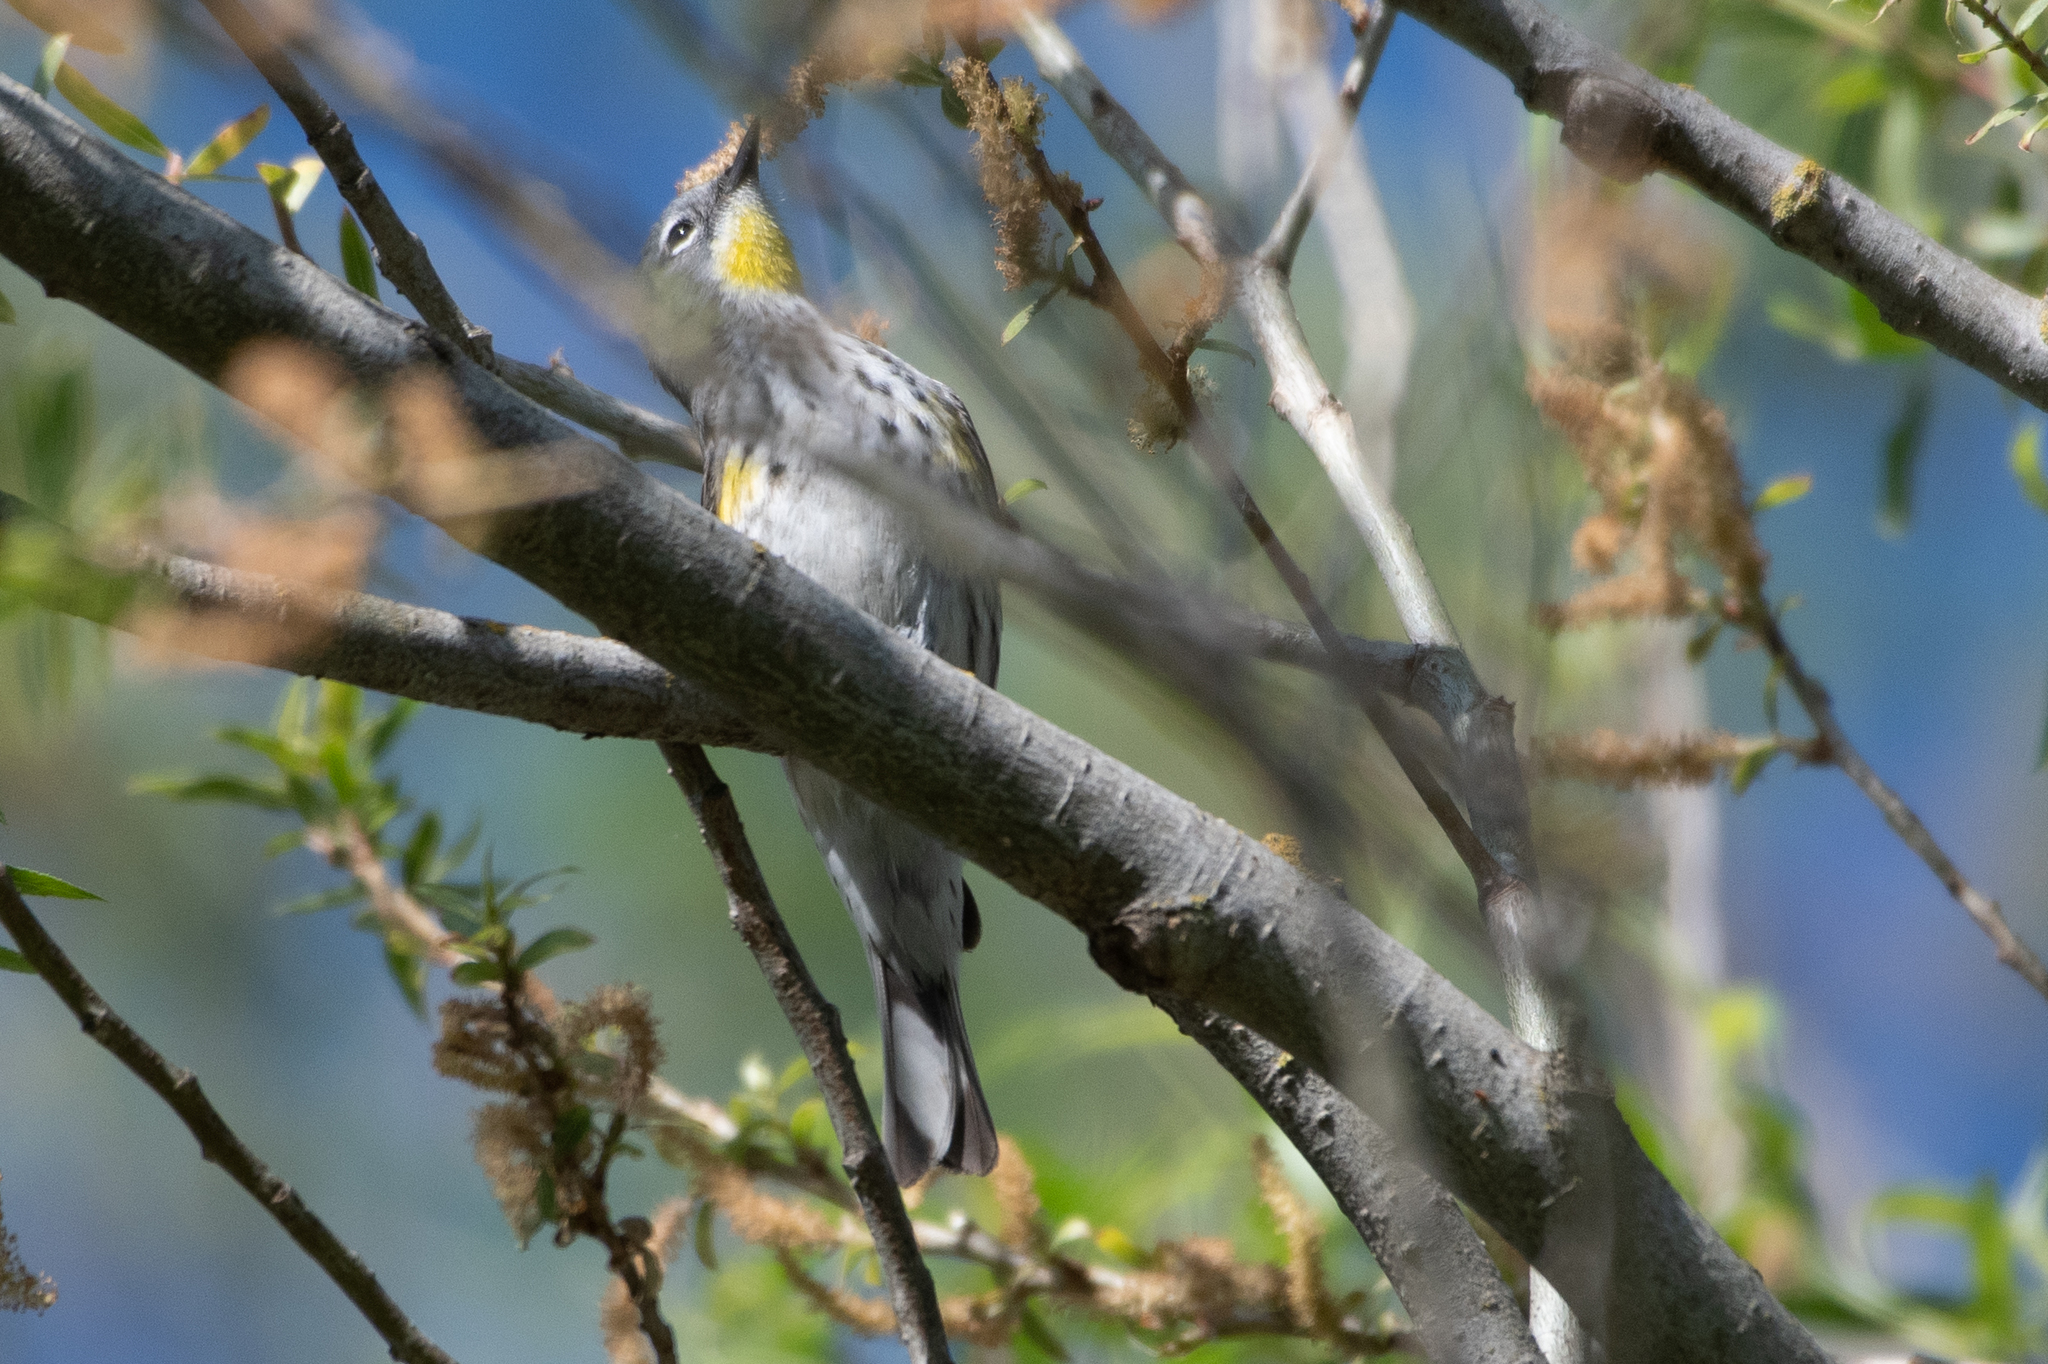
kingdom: Animalia
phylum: Chordata
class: Aves
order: Passeriformes
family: Parulidae
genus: Setophaga
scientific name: Setophaga coronata
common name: Myrtle warbler
